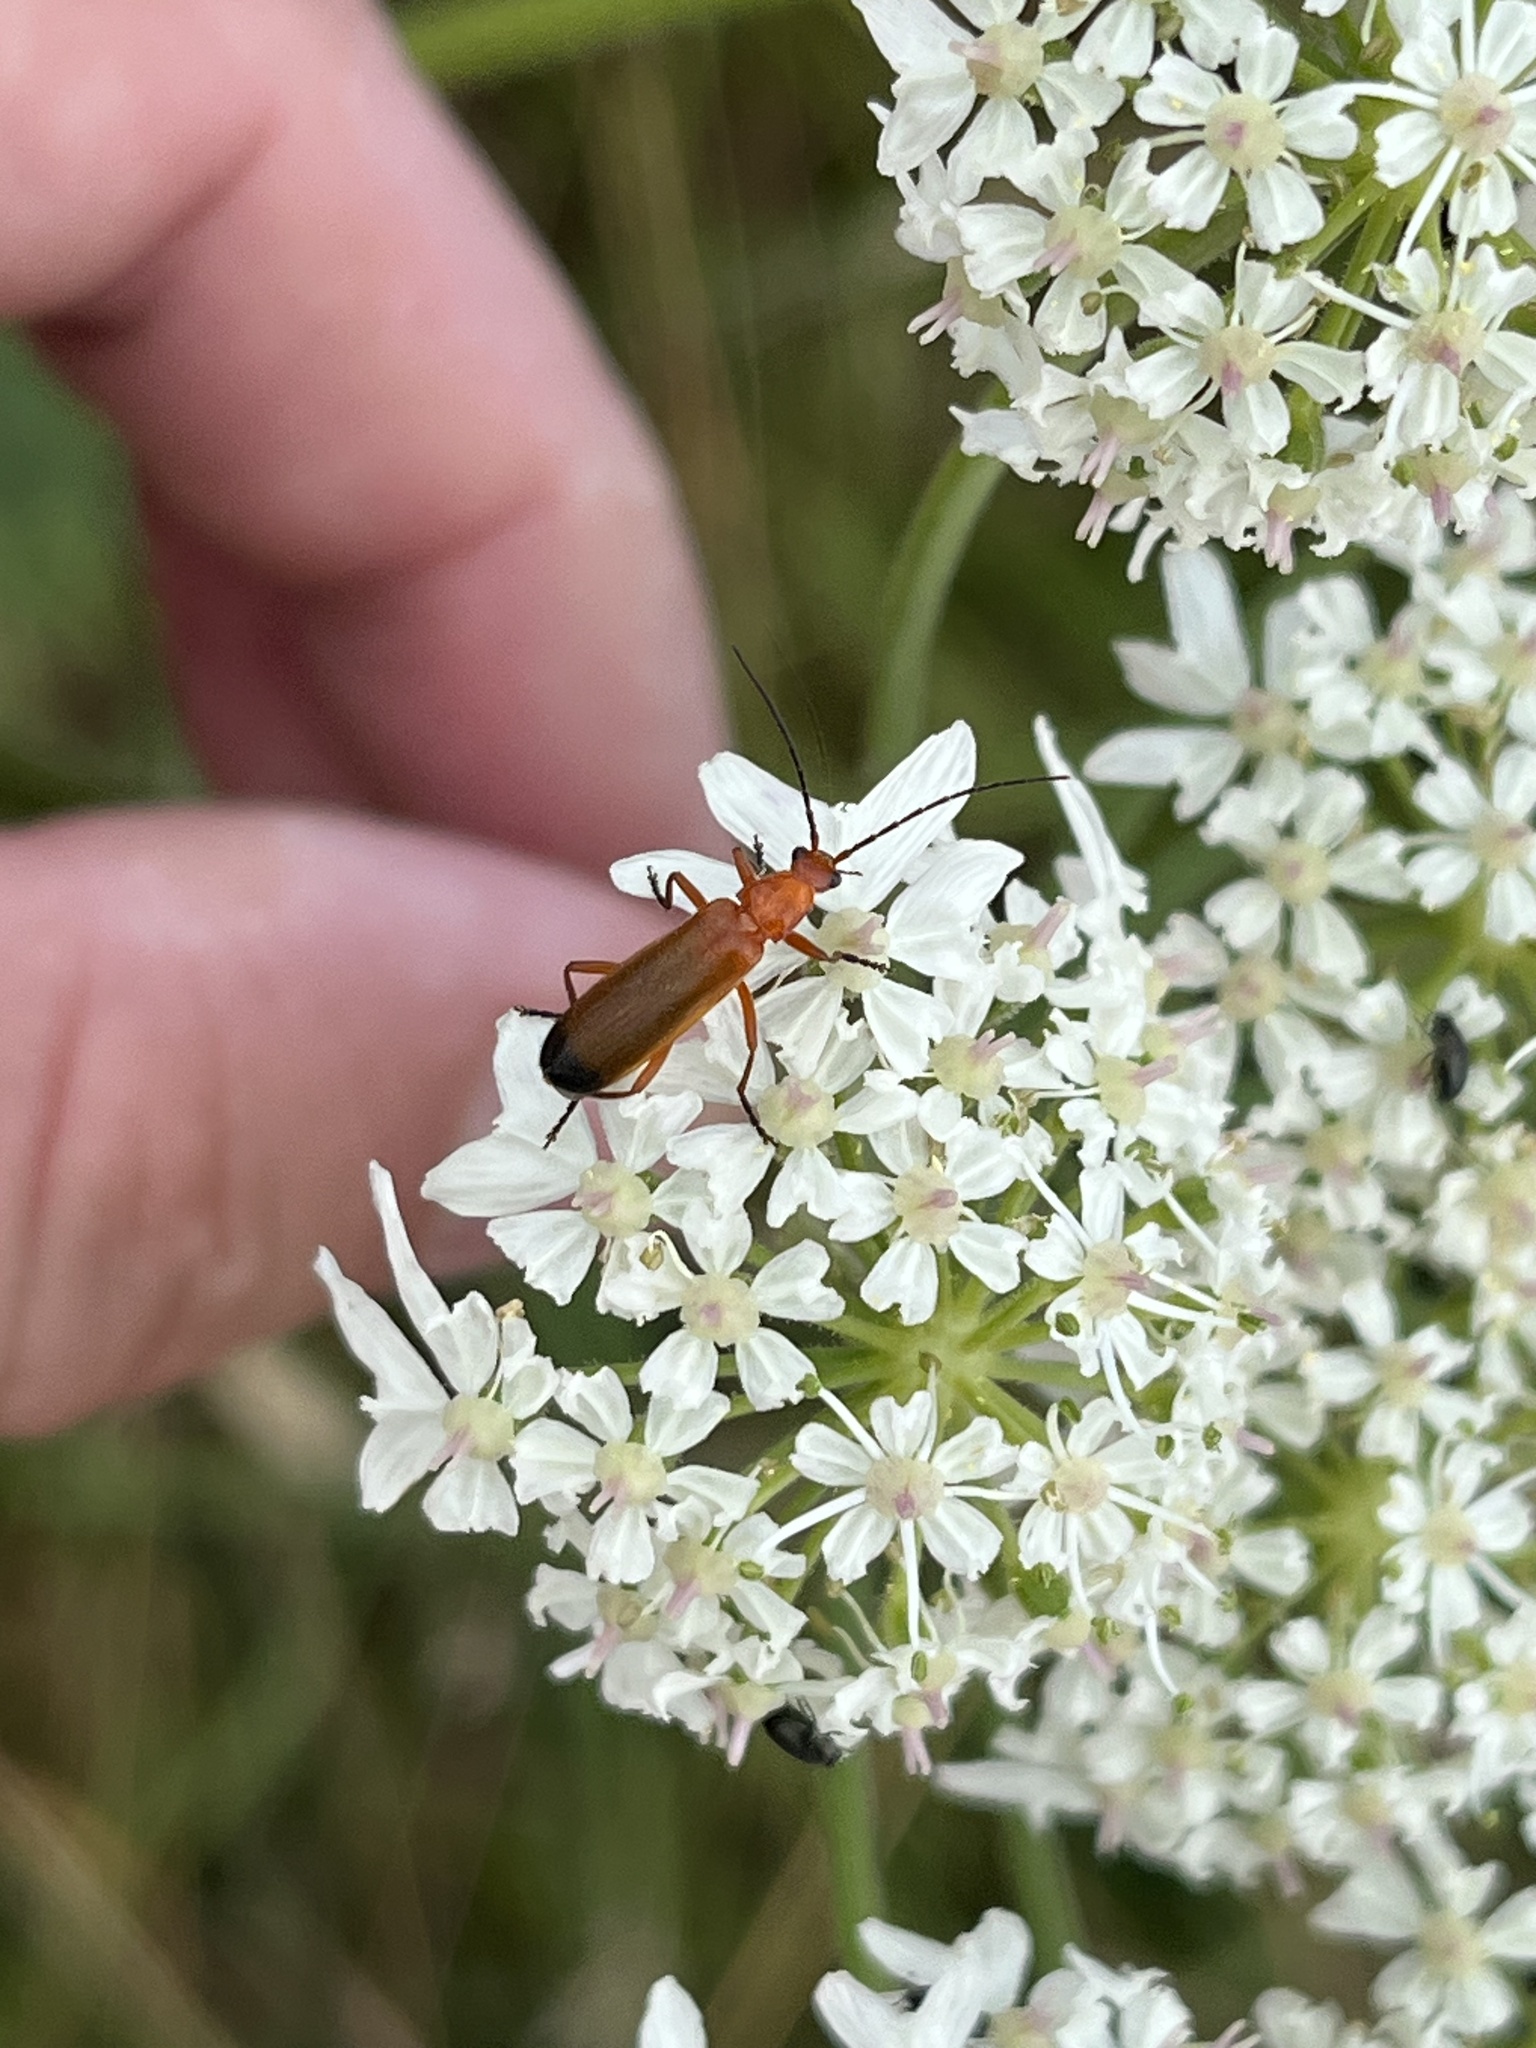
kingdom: Animalia
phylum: Arthropoda
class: Insecta
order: Coleoptera
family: Cantharidae
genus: Rhagonycha
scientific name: Rhagonycha fulva
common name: Common red soldier beetle
